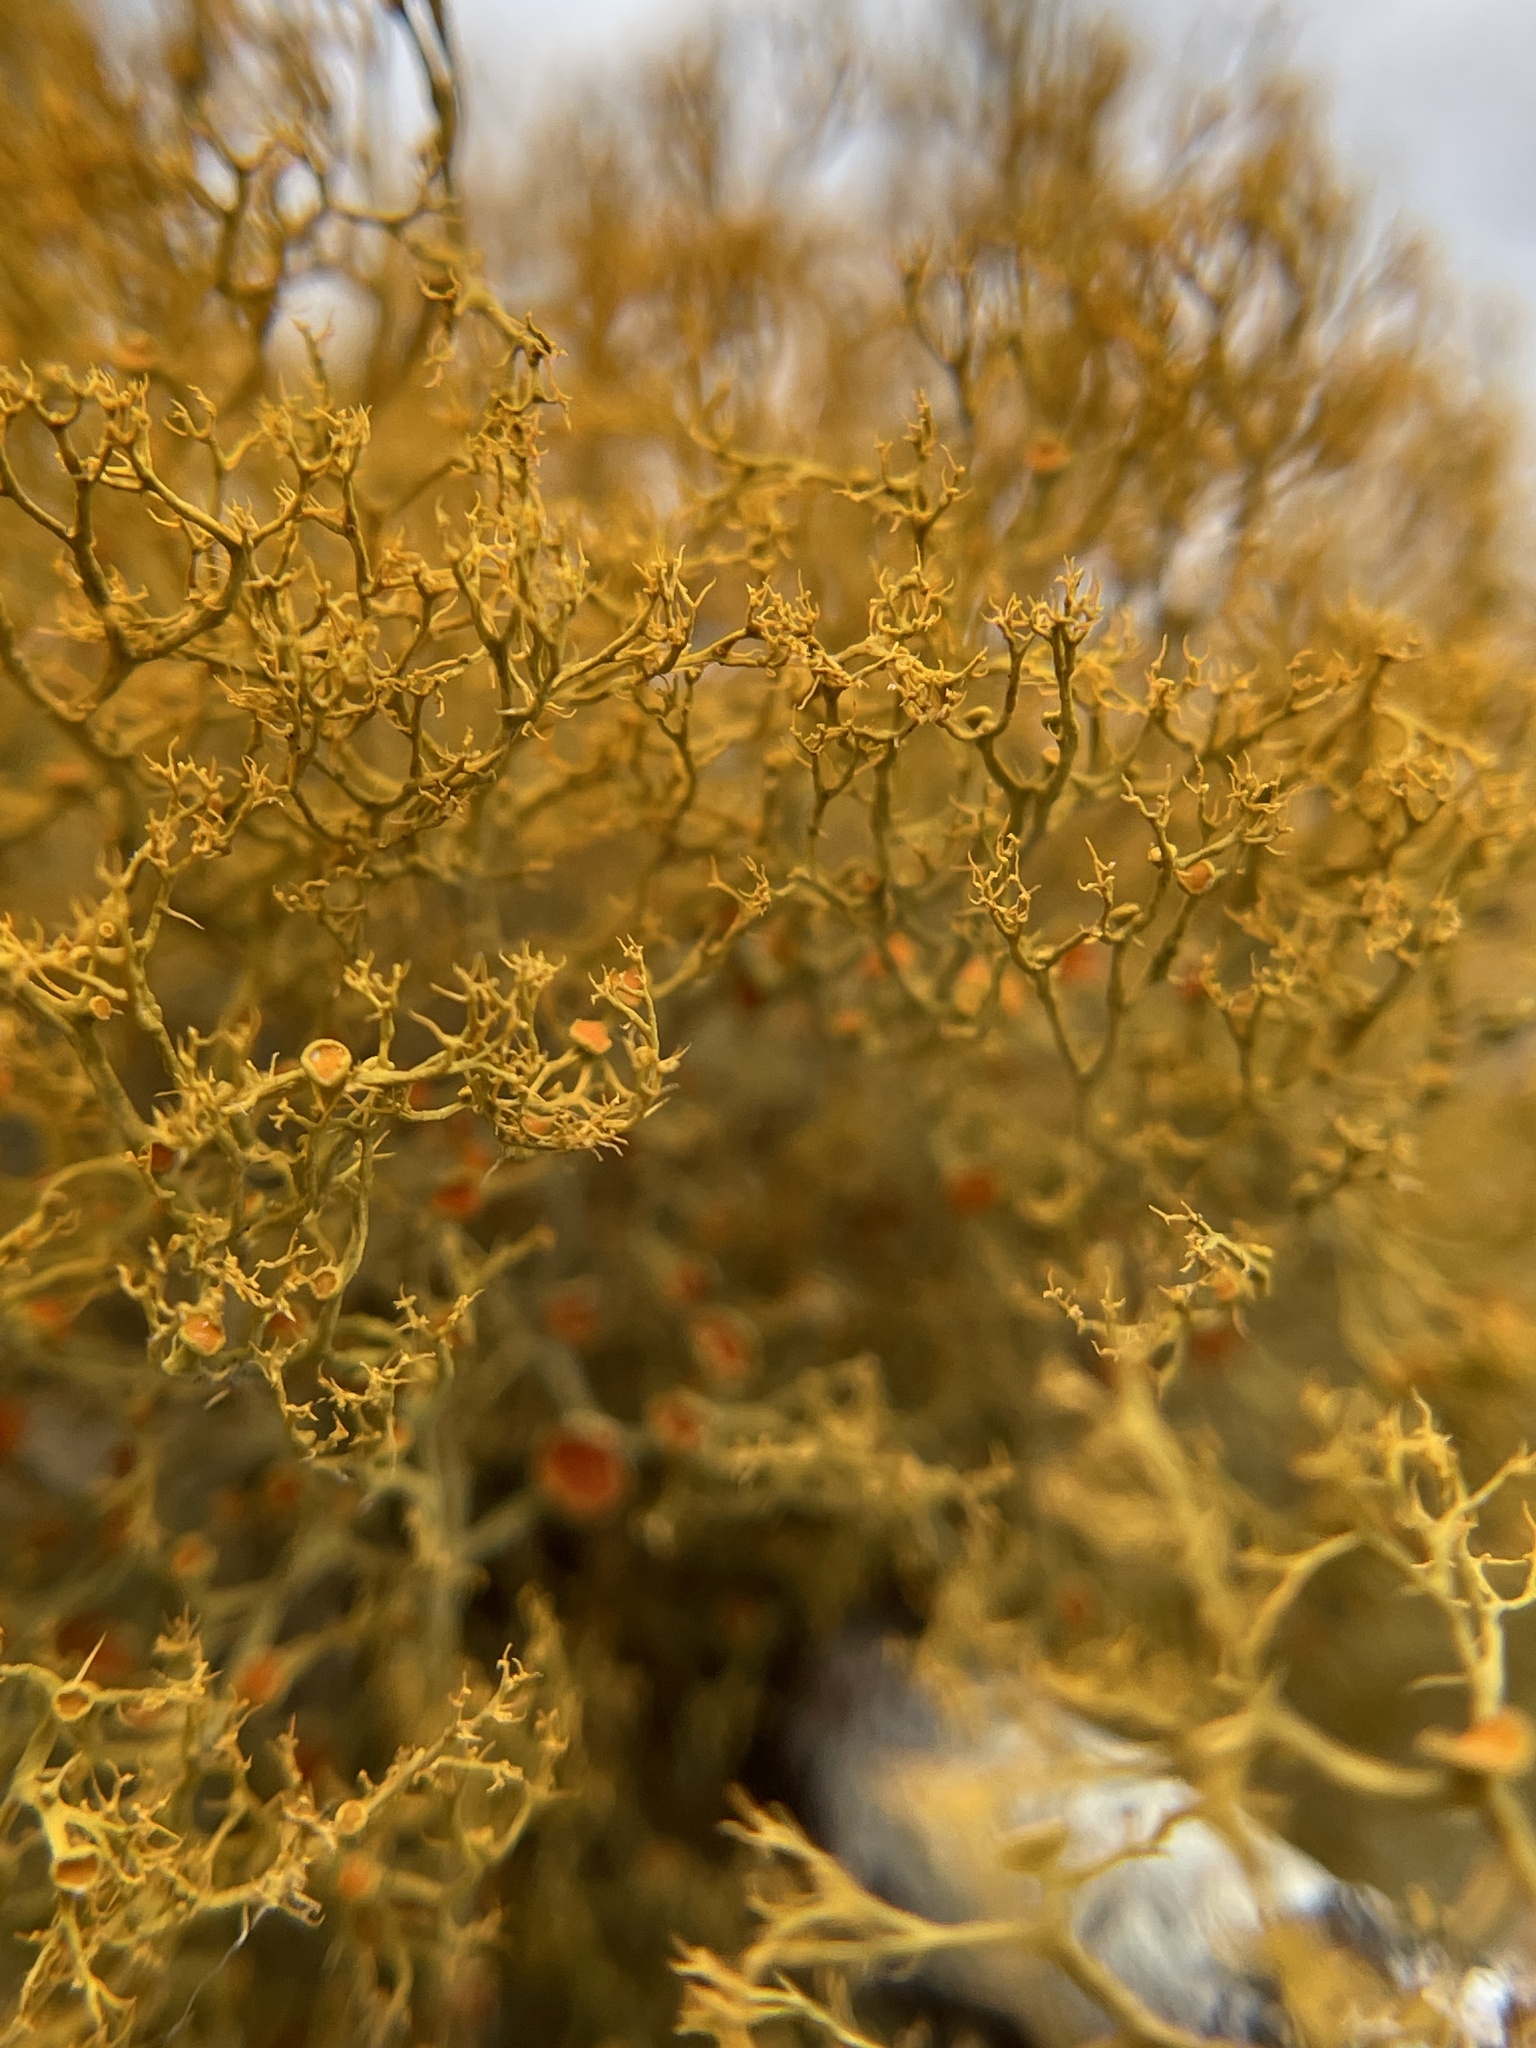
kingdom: Fungi
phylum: Ascomycota
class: Lecanoromycetes
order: Teloschistales
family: Teloschistaceae
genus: Teloschistes
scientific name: Teloschistes exilis
